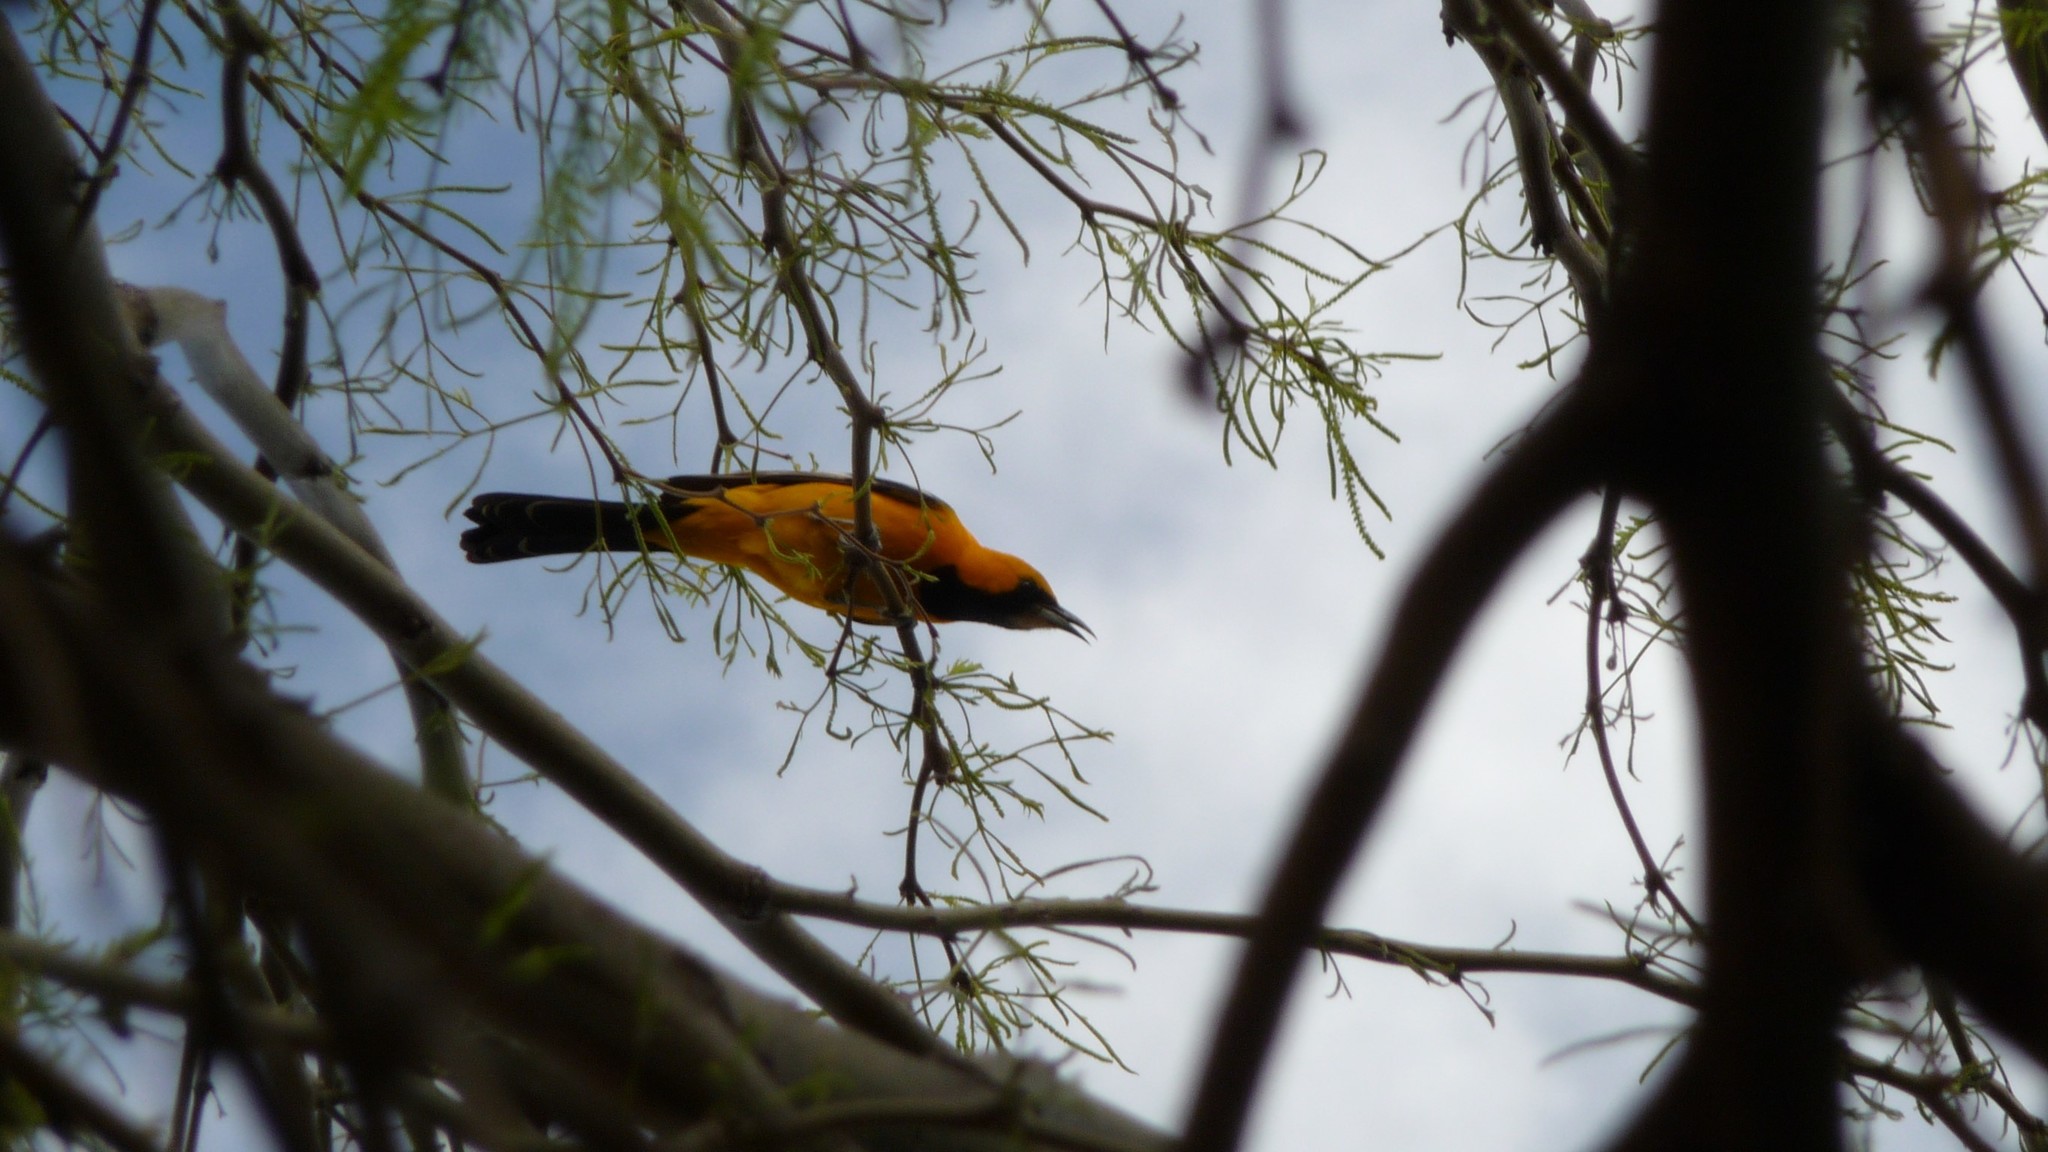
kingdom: Animalia
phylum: Chordata
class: Aves
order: Passeriformes
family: Icteridae
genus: Icterus
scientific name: Icterus cucullatus
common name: Hooded oriole
